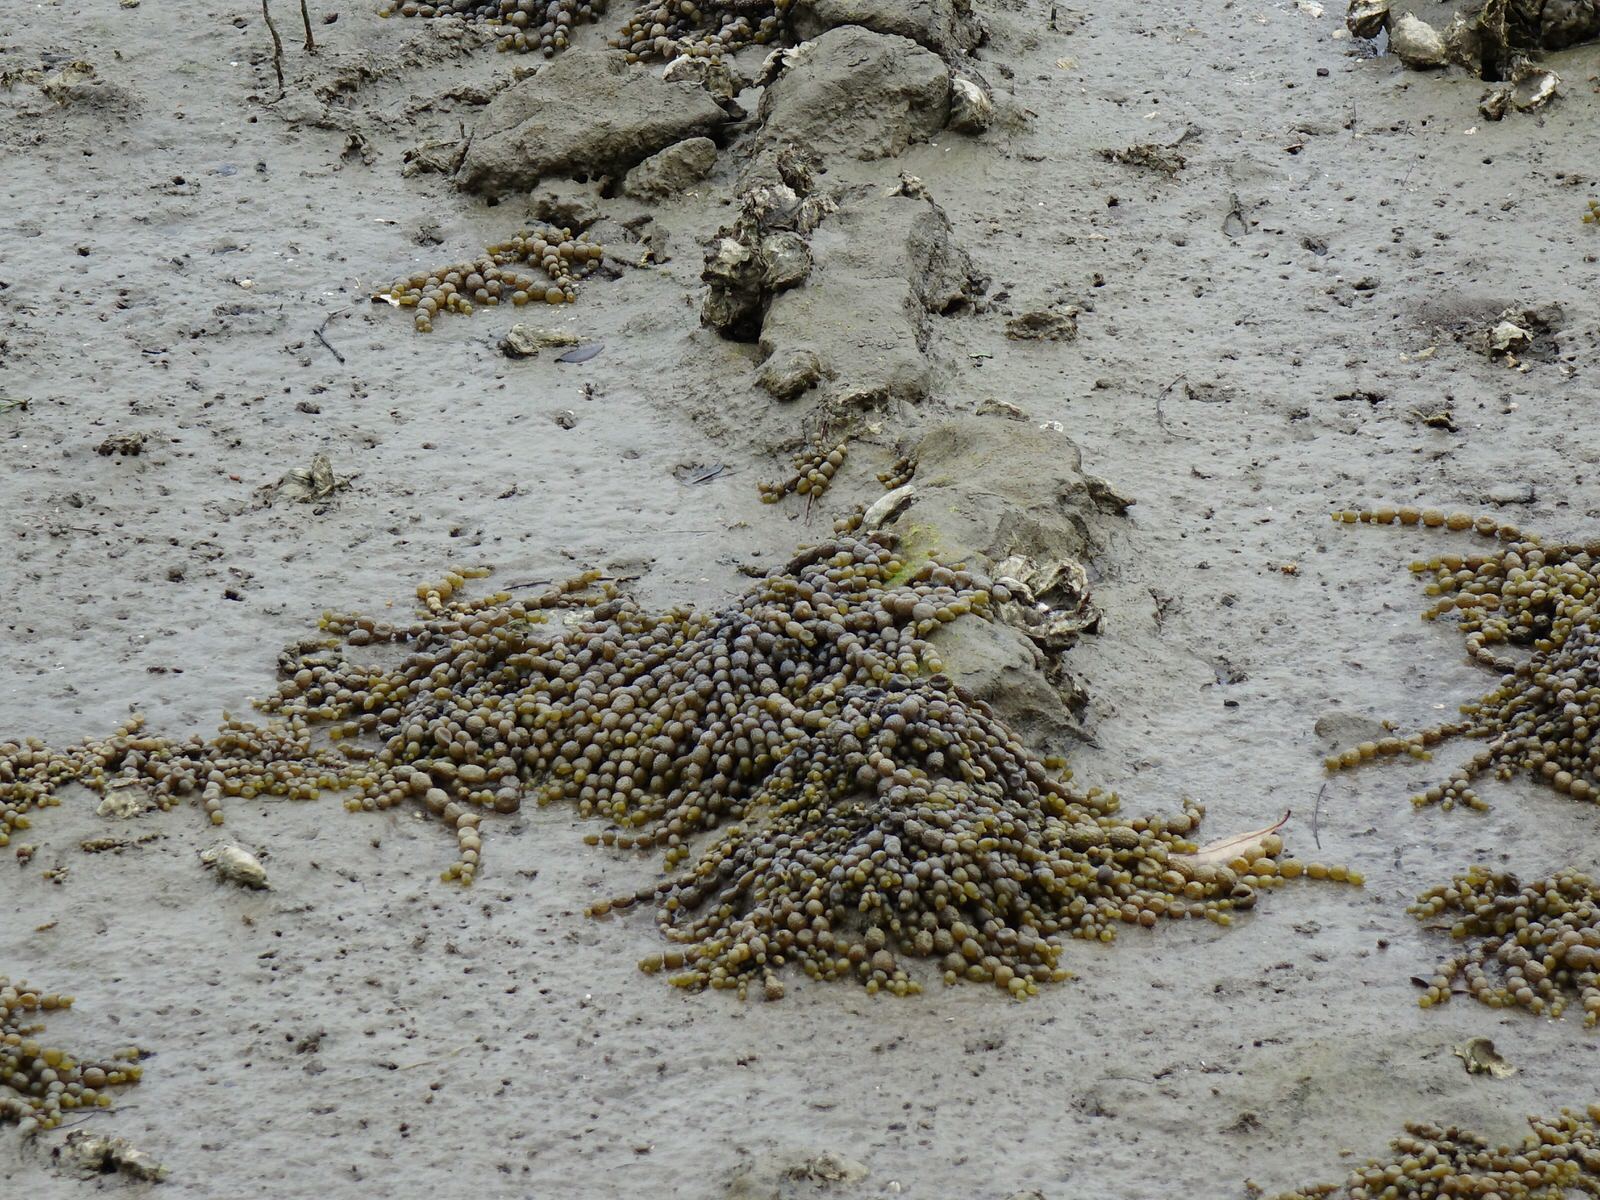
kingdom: Chromista
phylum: Ochrophyta
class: Phaeophyceae
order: Fucales
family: Hormosiraceae
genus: Hormosira
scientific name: Hormosira banksii
